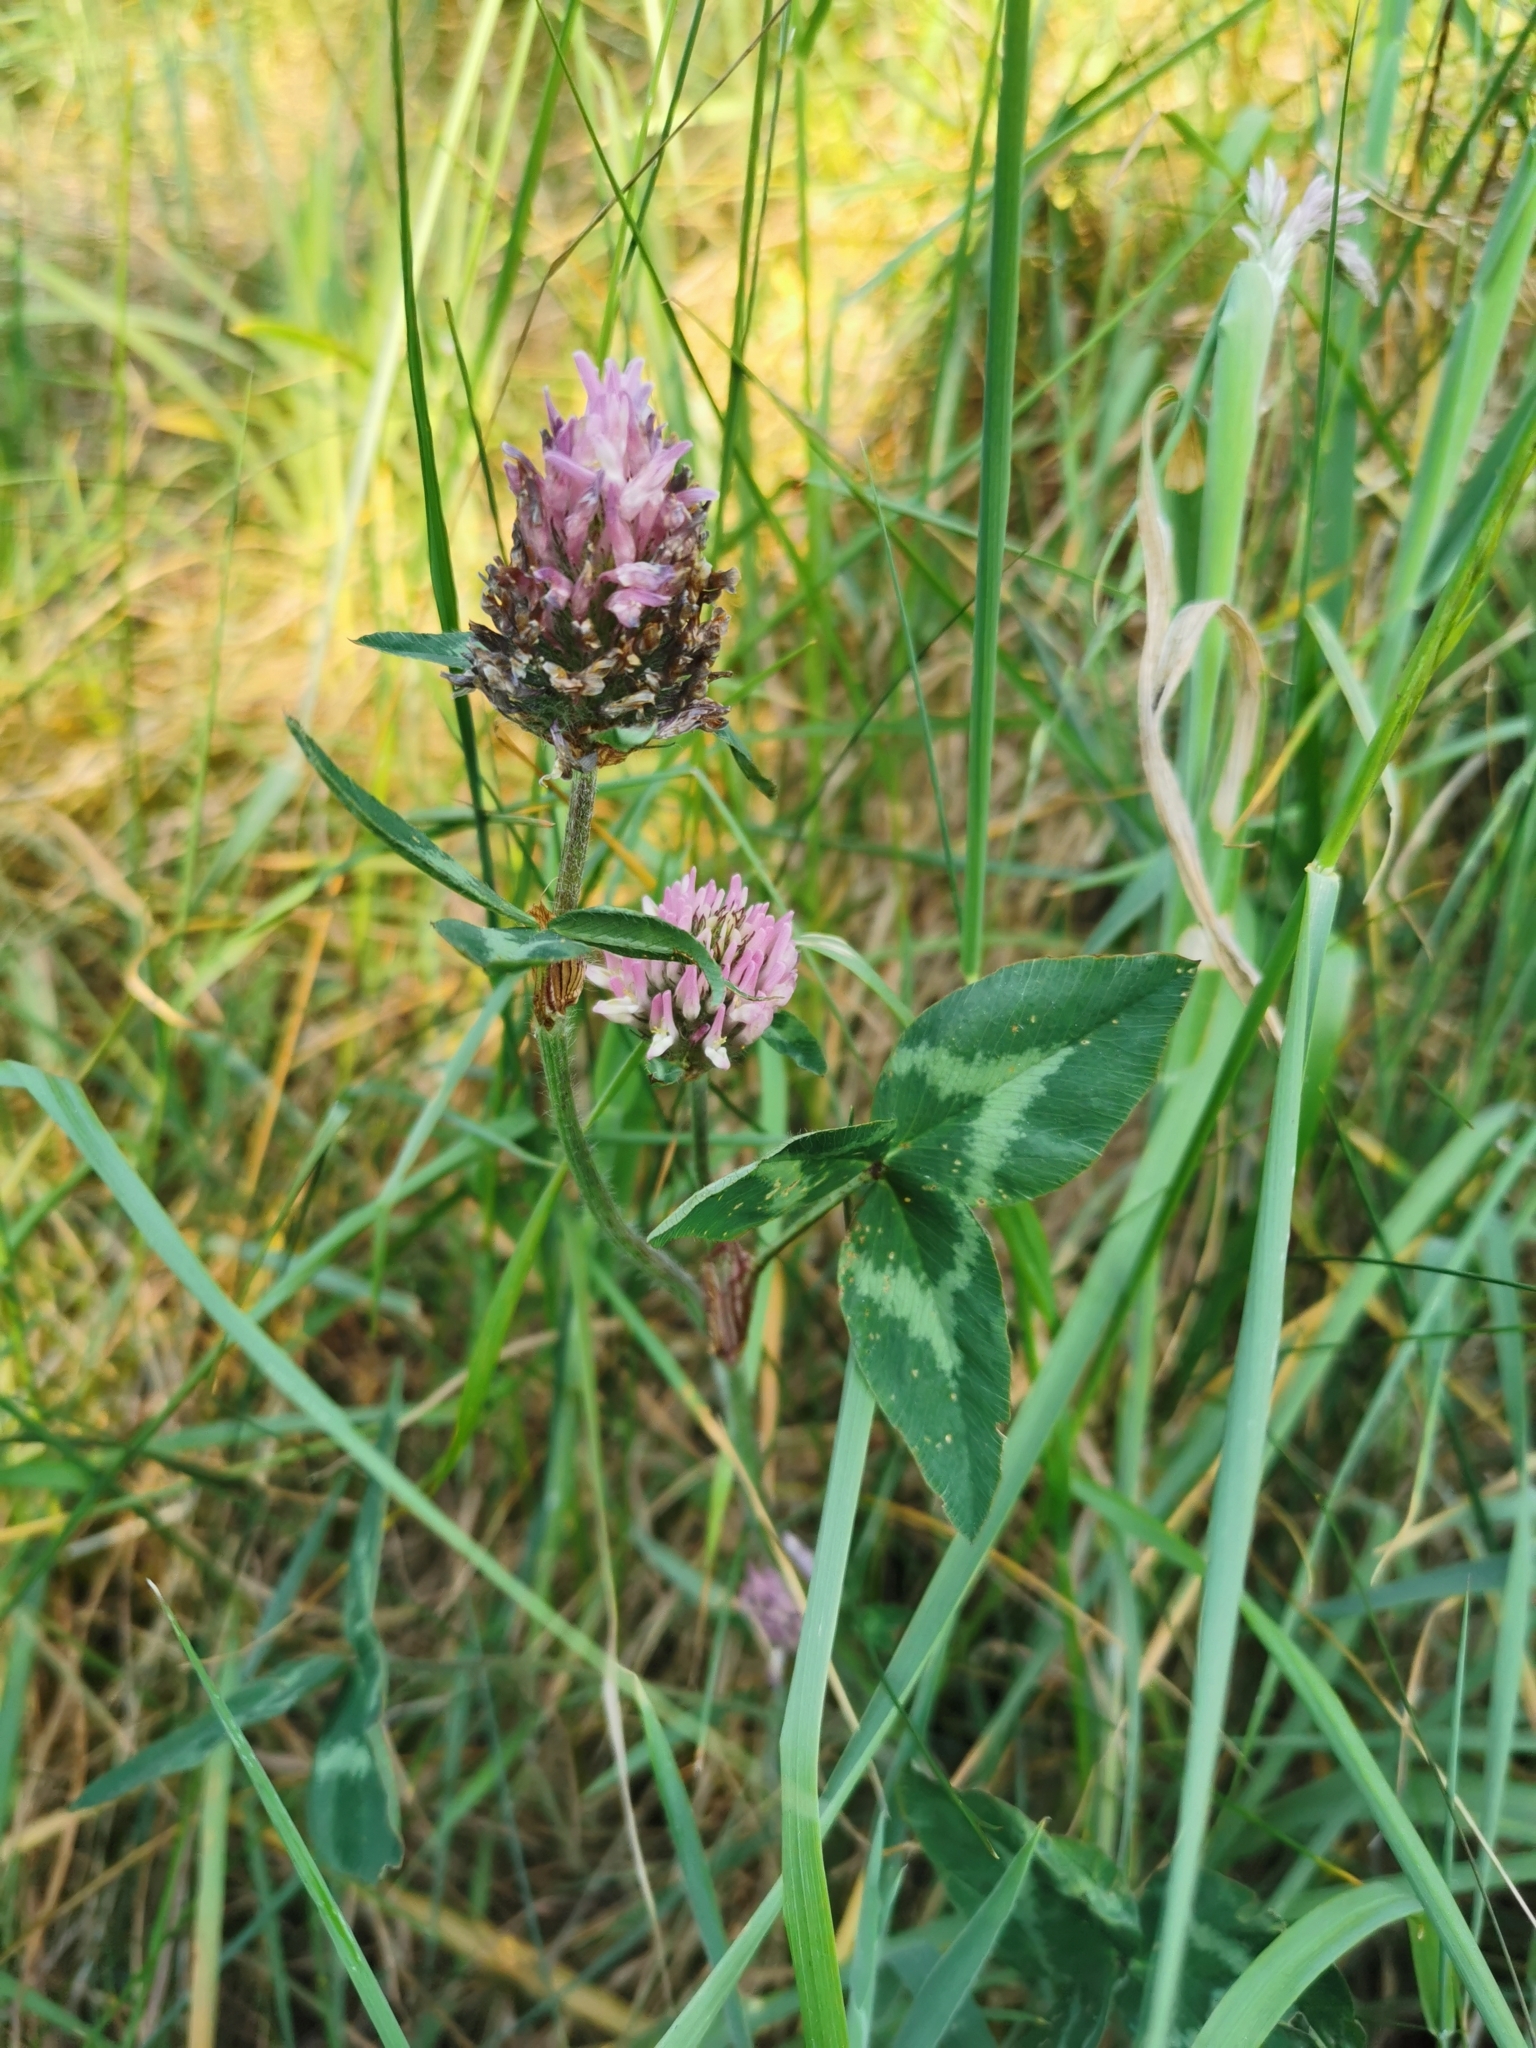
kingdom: Plantae
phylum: Tracheophyta
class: Magnoliopsida
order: Fabales
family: Fabaceae
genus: Trifolium
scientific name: Trifolium pratense
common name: Red clover
